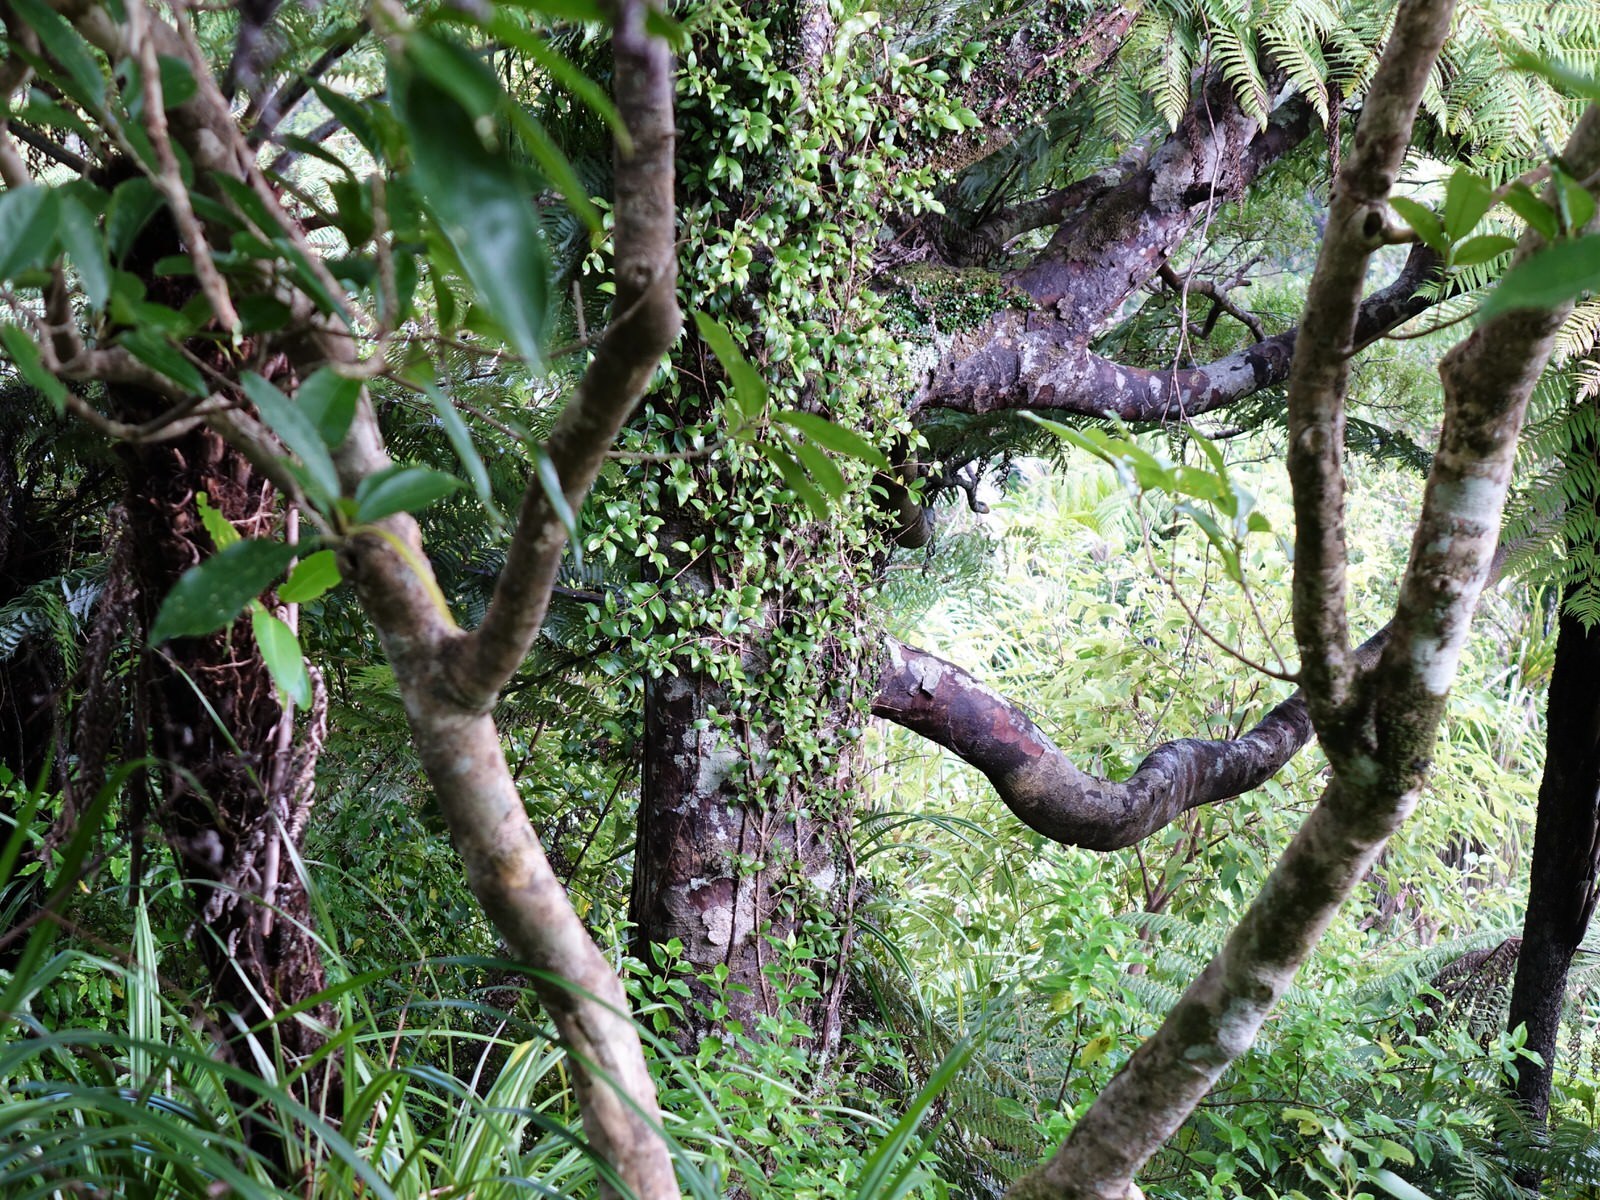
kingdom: Plantae
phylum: Tracheophyta
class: Pinopsida
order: Pinales
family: Podocarpaceae
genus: Prumnopitys
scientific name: Prumnopitys taxifolia
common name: Matai
